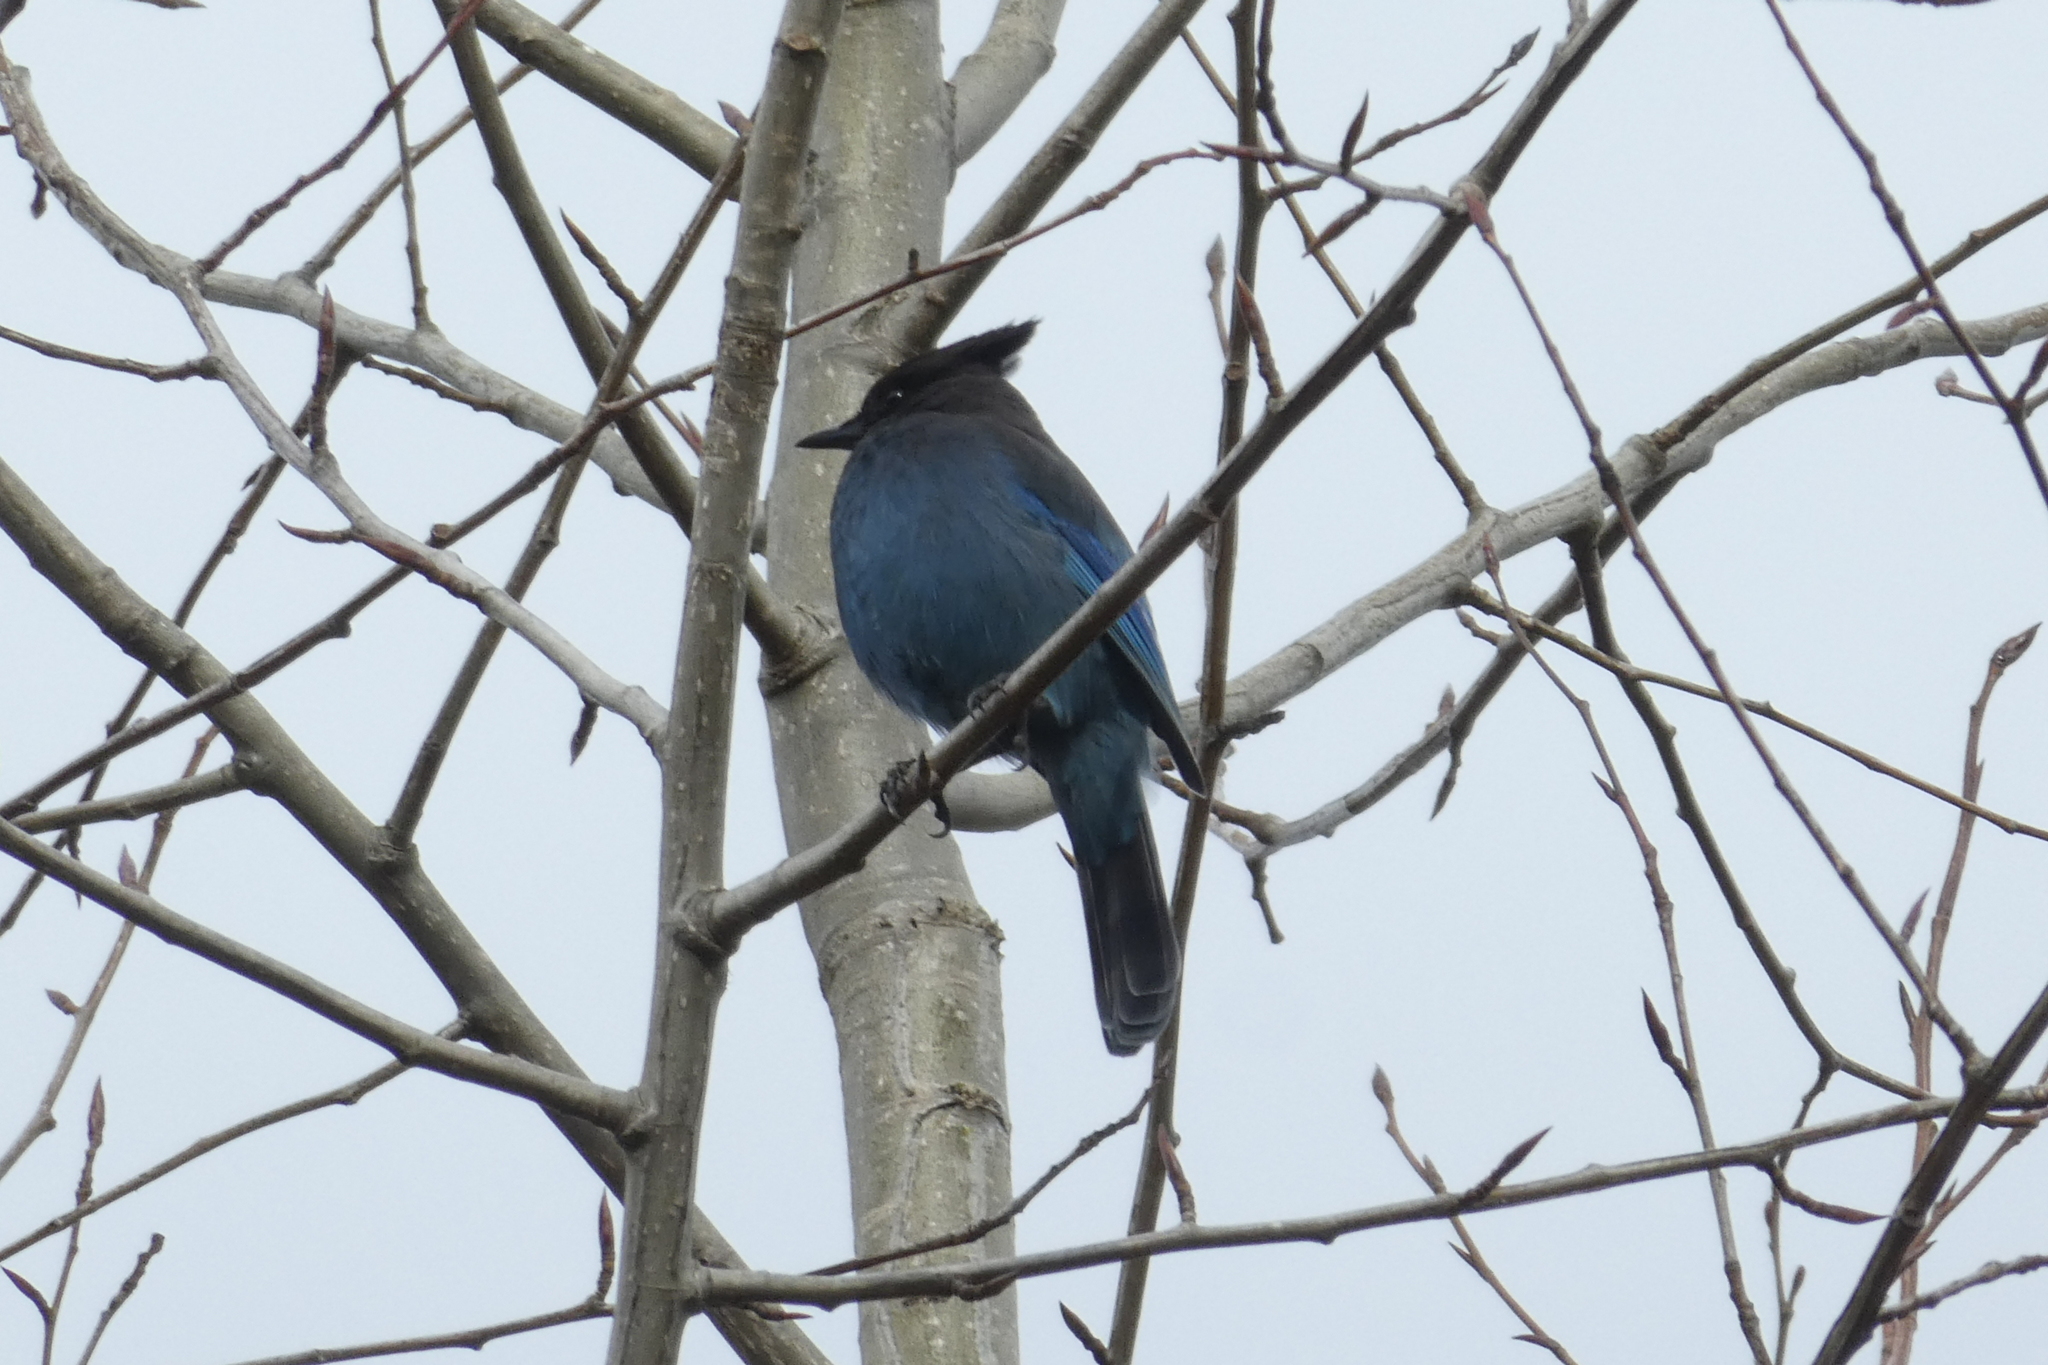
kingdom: Animalia
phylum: Chordata
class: Aves
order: Passeriformes
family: Corvidae
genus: Cyanocitta
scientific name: Cyanocitta stelleri
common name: Steller's jay
